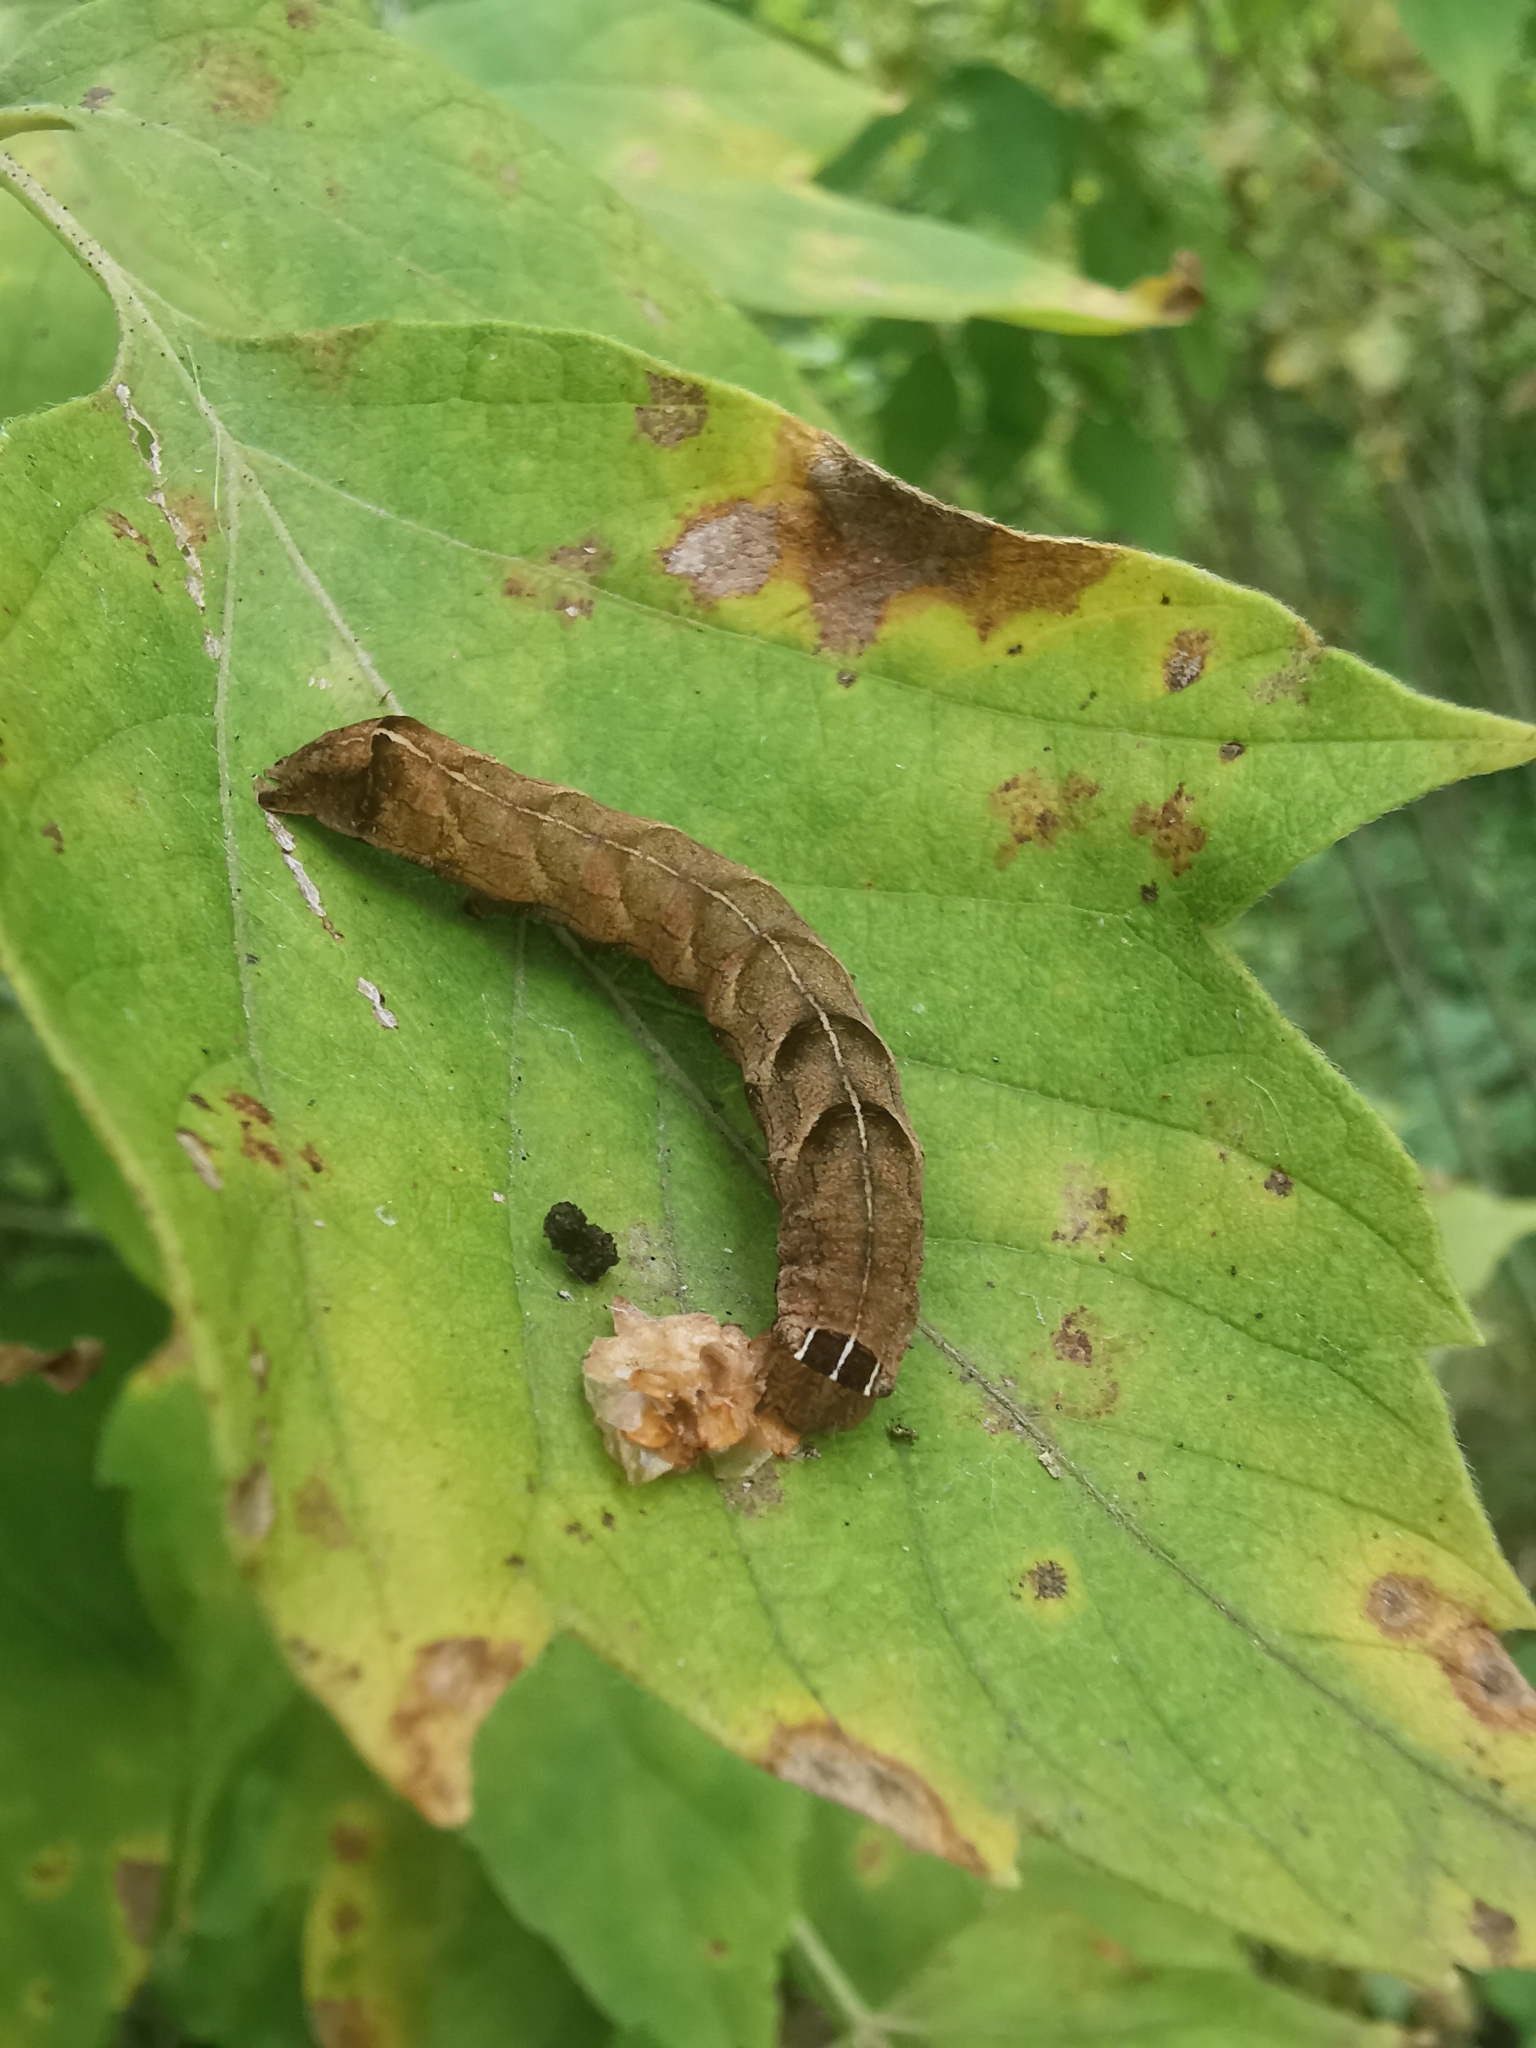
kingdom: Animalia
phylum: Arthropoda
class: Insecta
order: Lepidoptera
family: Noctuidae
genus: Melanchra
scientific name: Melanchra persicariae
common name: Dot moth
